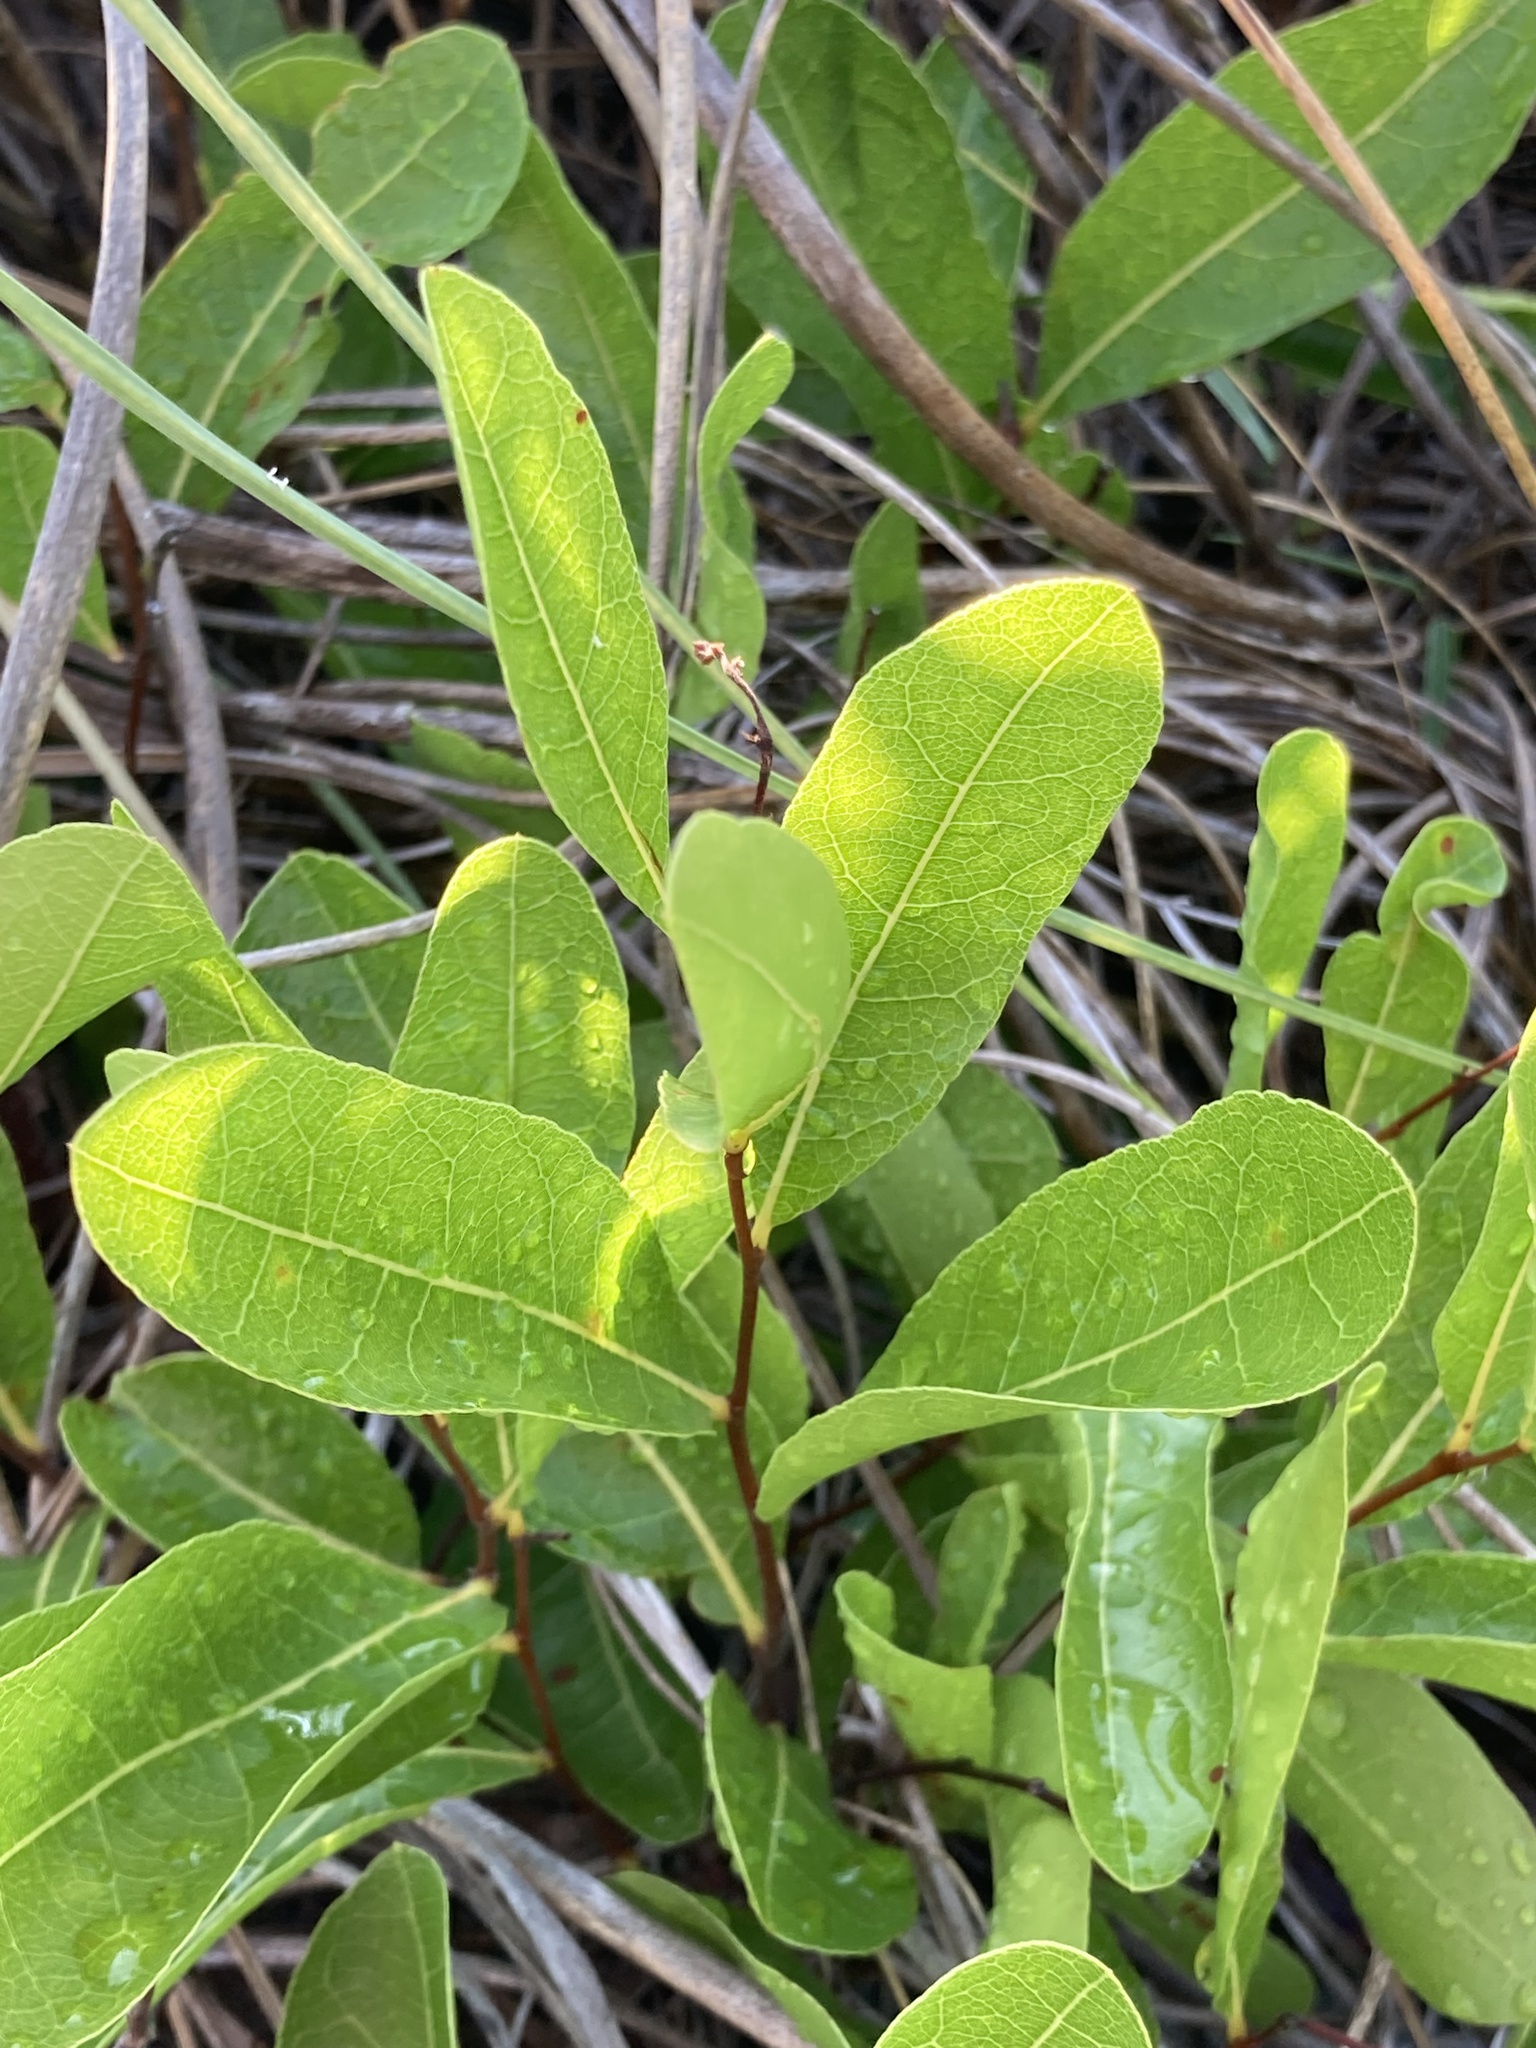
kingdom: Plantae
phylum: Tracheophyta
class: Magnoliopsida
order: Malpighiales
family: Chrysobalanaceae
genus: Geobalanus
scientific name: Geobalanus oblongifolius
